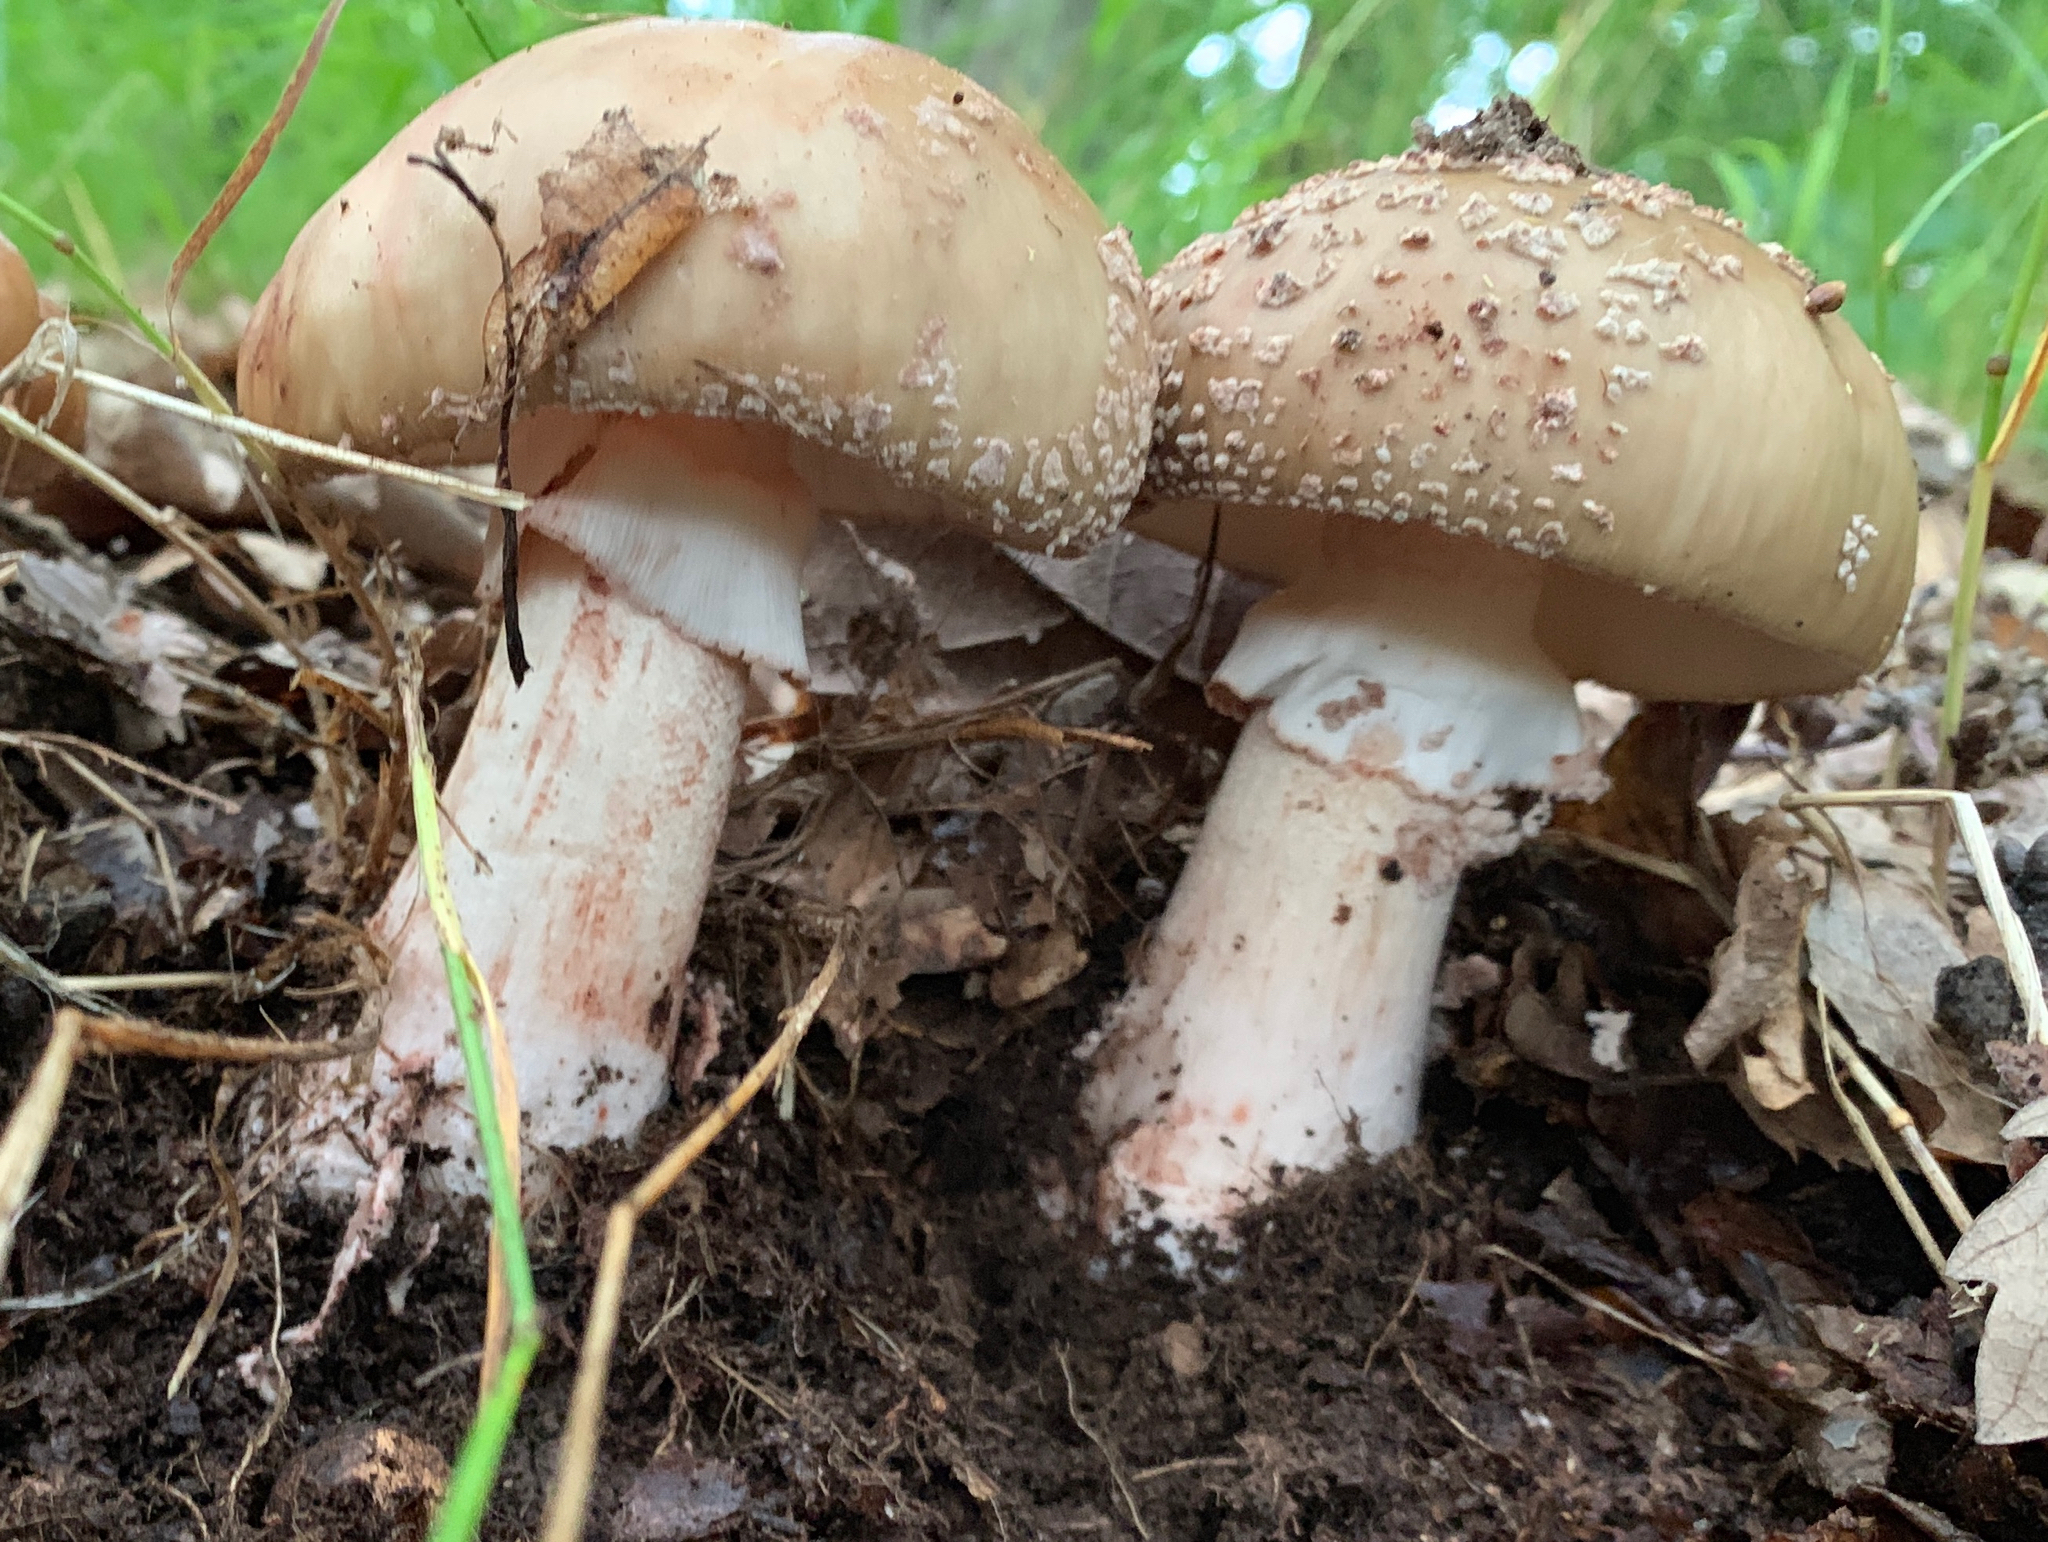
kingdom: Fungi
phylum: Basidiomycota
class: Agaricomycetes
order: Agaricales
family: Amanitaceae
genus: Amanita
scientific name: Amanita rubescens
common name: Blusher
